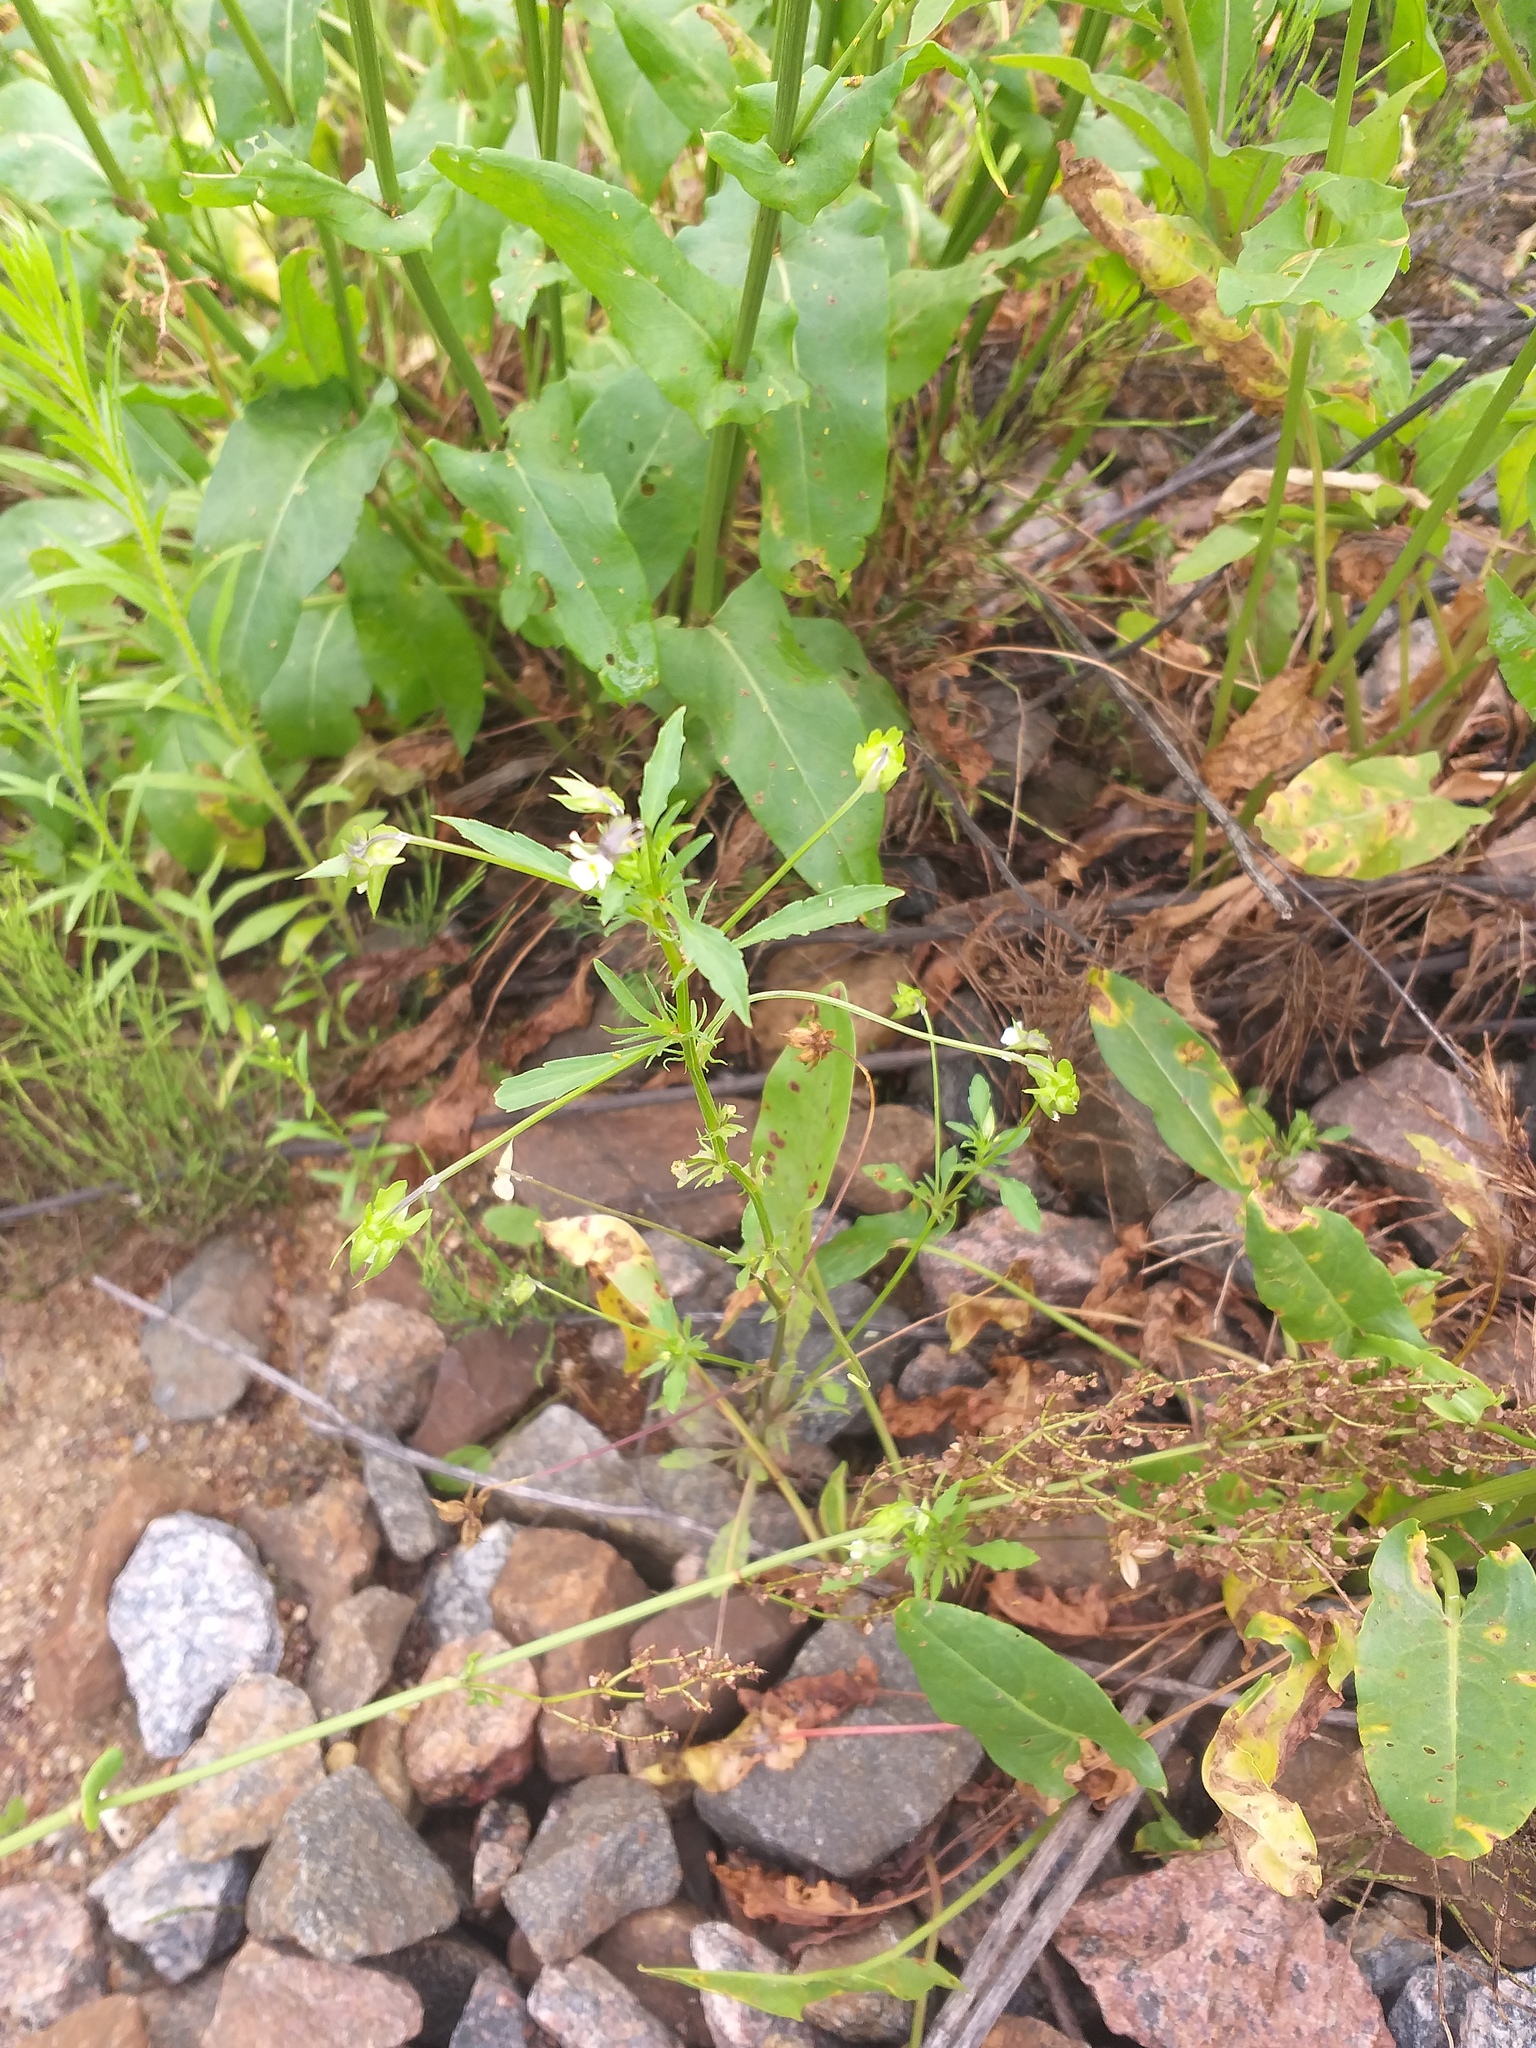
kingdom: Plantae
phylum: Tracheophyta
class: Magnoliopsida
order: Malpighiales
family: Violaceae
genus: Viola
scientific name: Viola arvensis
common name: Field pansy
